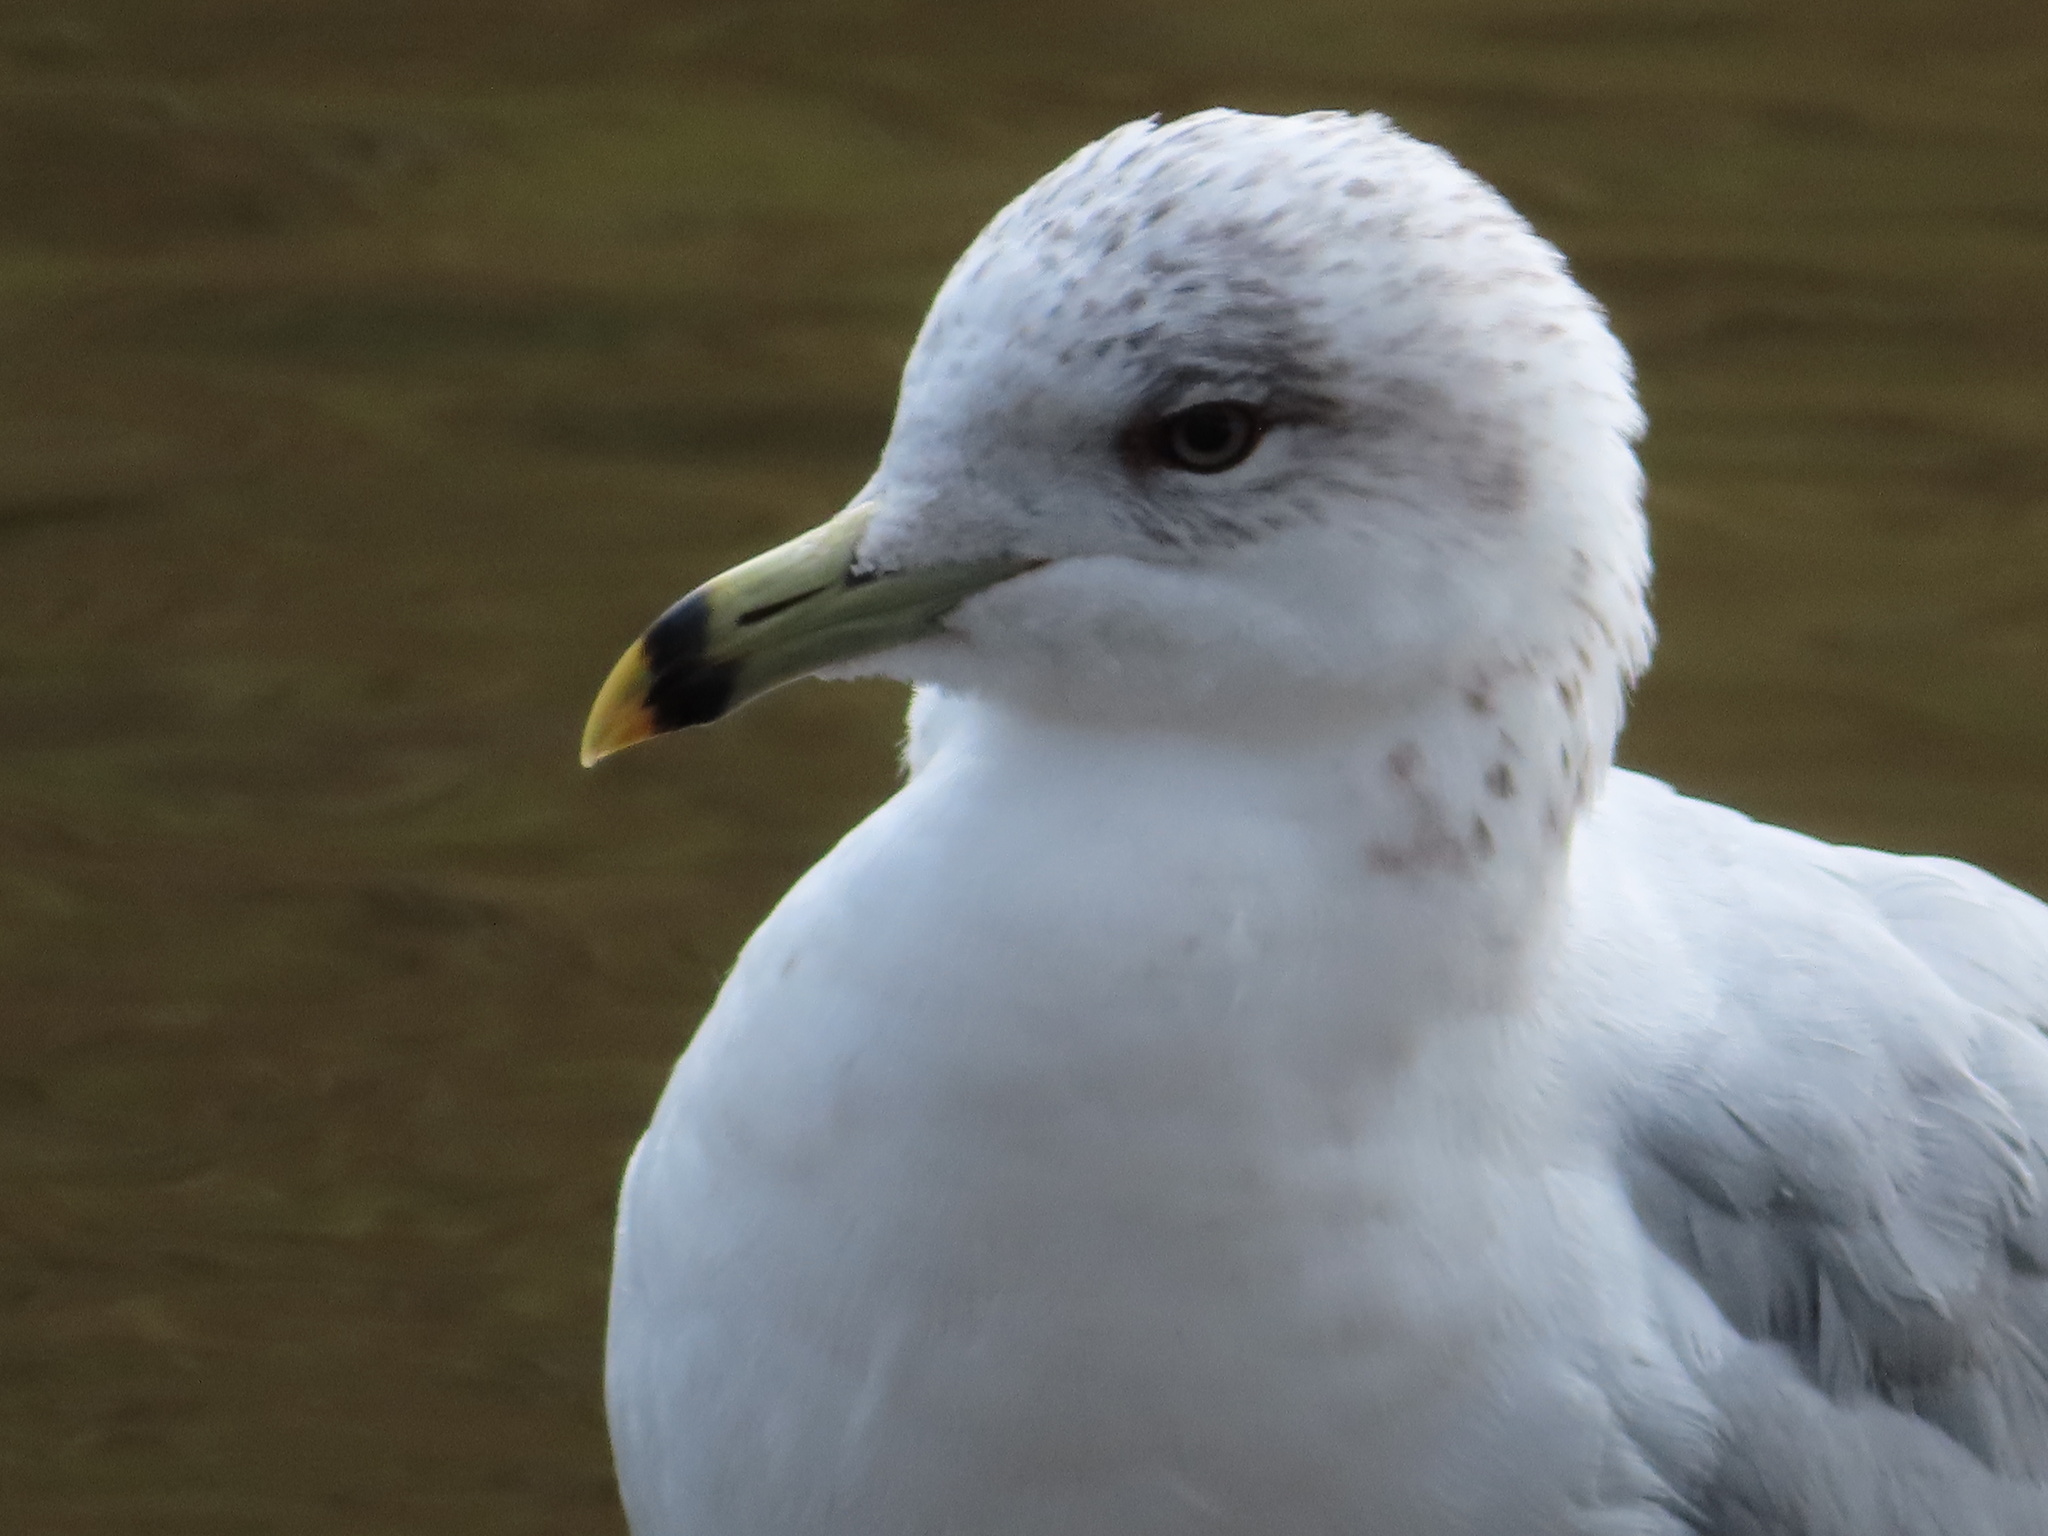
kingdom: Animalia
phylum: Chordata
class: Aves
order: Charadriiformes
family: Laridae
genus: Larus
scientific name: Larus delawarensis
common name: Ring-billed gull
